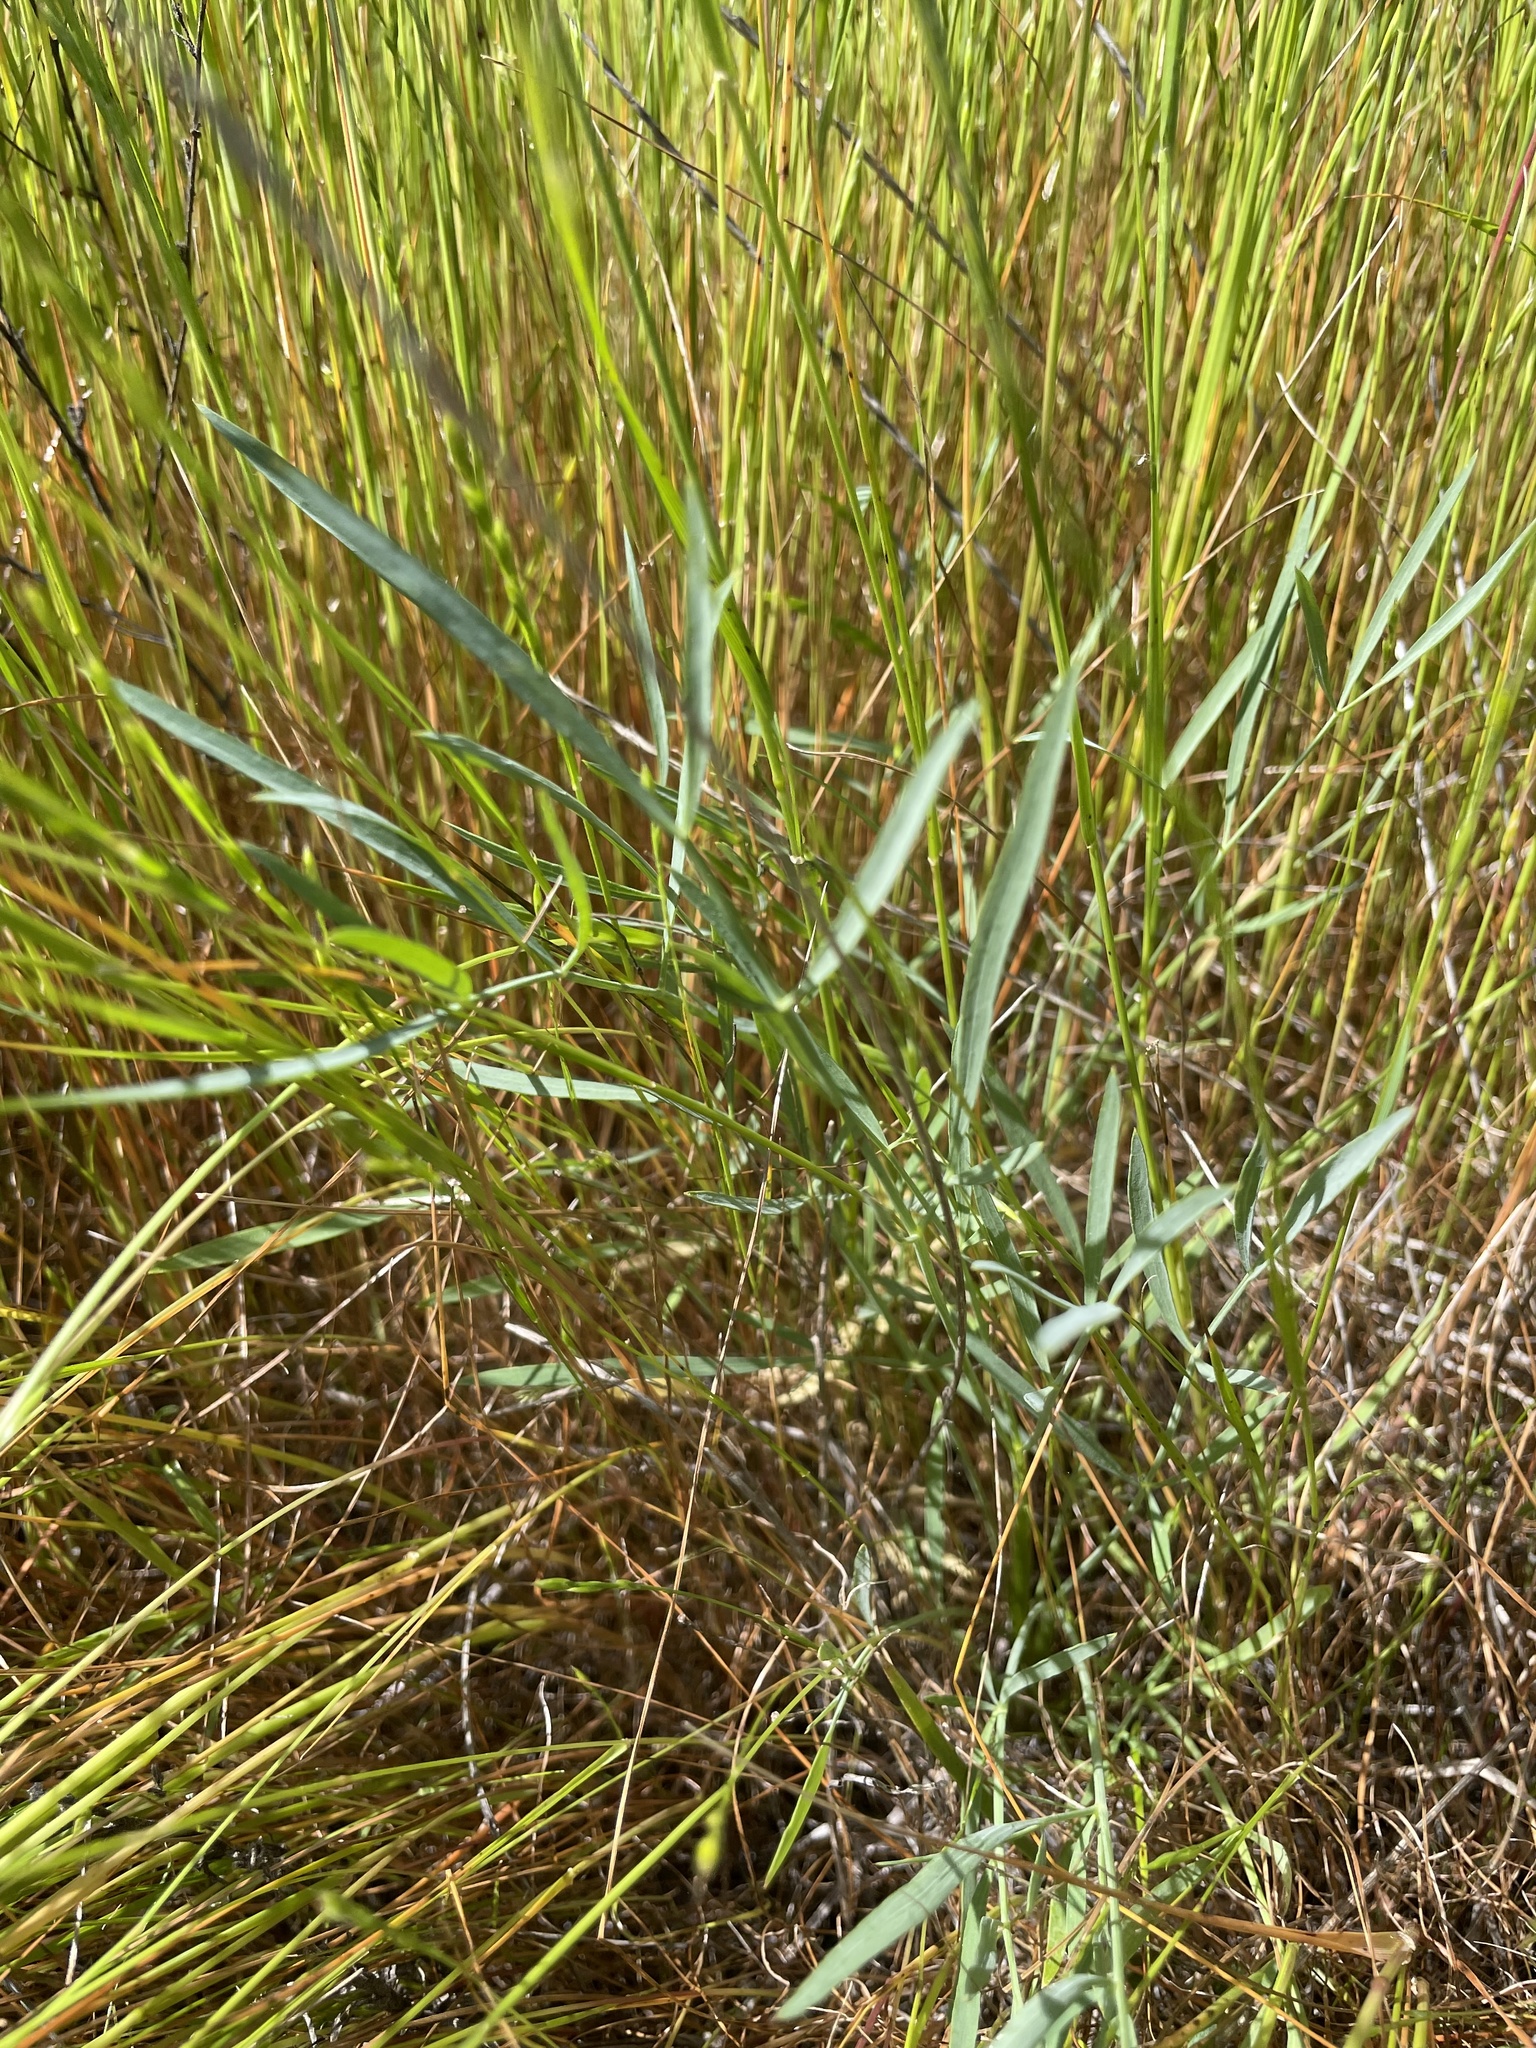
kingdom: Plantae
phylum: Tracheophyta
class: Magnoliopsida
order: Apiales
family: Apiaceae
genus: Perideridia
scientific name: Perideridia kelloggii
